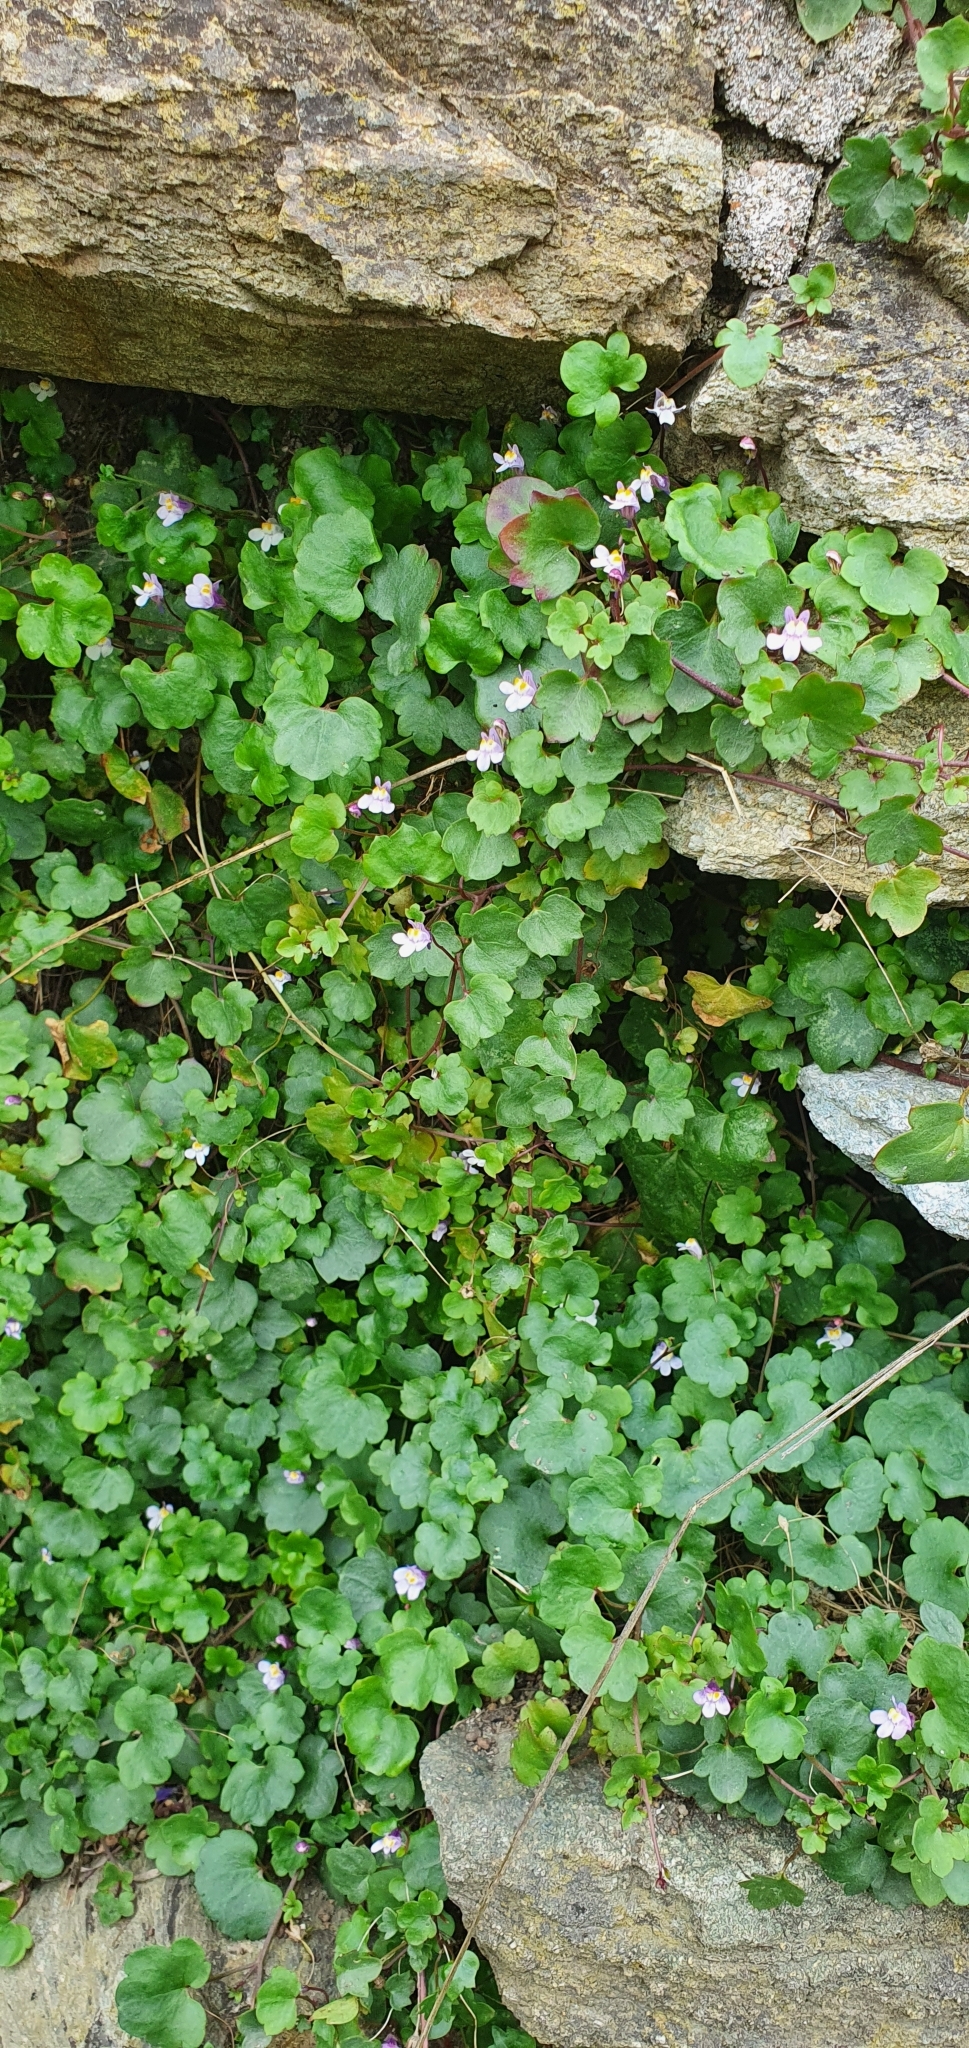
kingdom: Plantae
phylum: Tracheophyta
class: Magnoliopsida
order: Lamiales
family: Plantaginaceae
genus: Cymbalaria
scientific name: Cymbalaria muralis
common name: Ivy-leaved toadflax
